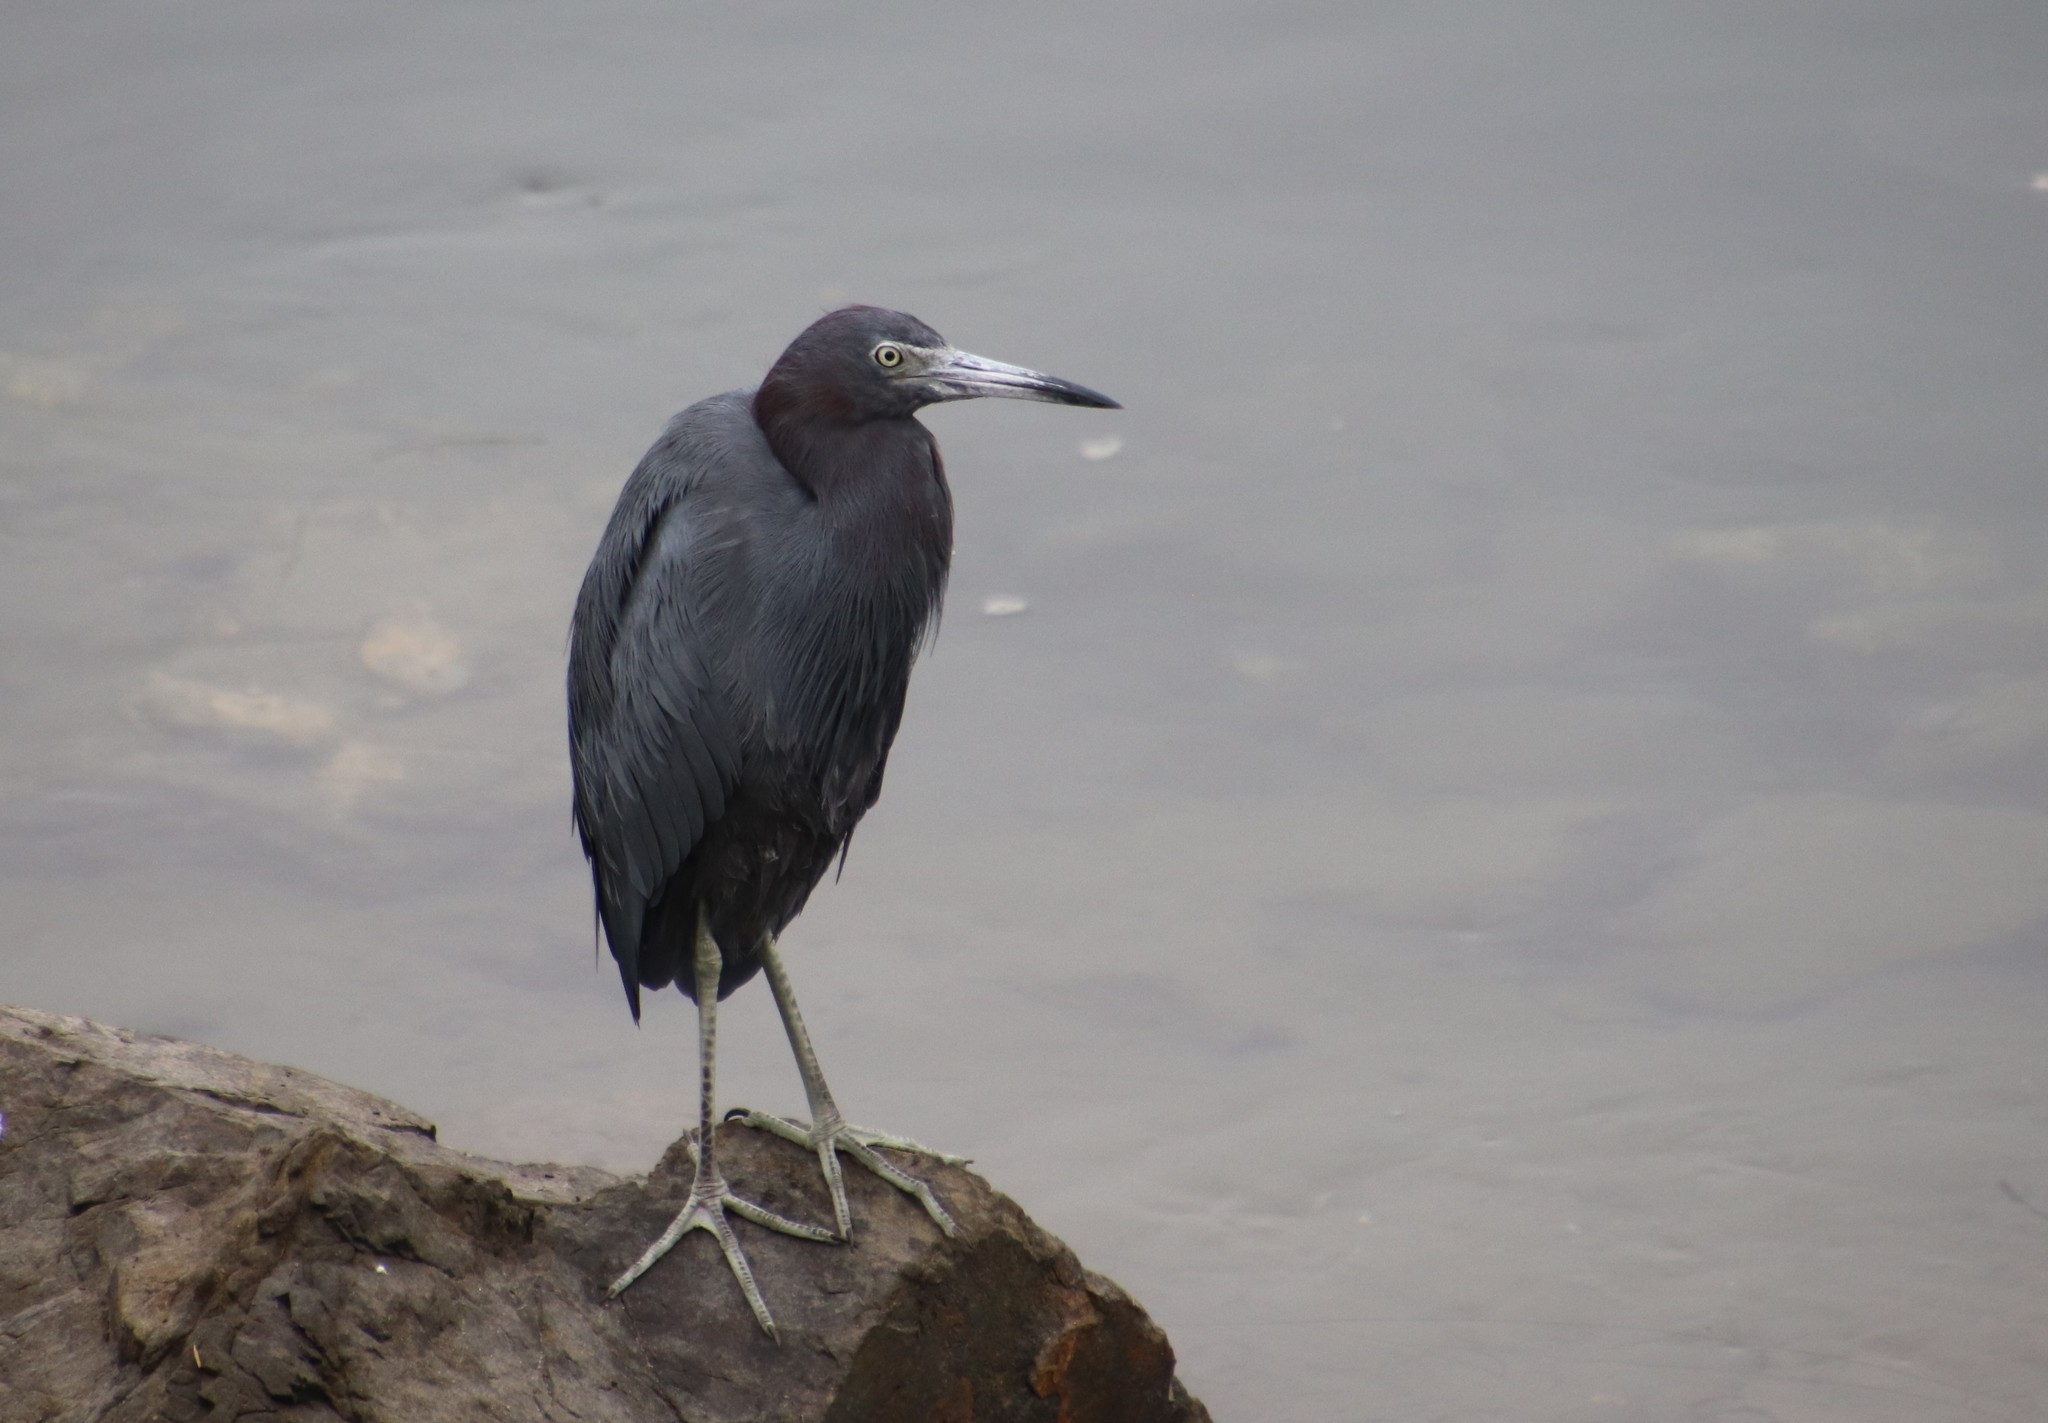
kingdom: Animalia
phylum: Chordata
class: Aves
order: Pelecaniformes
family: Ardeidae
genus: Egretta
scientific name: Egretta caerulea
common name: Little blue heron
